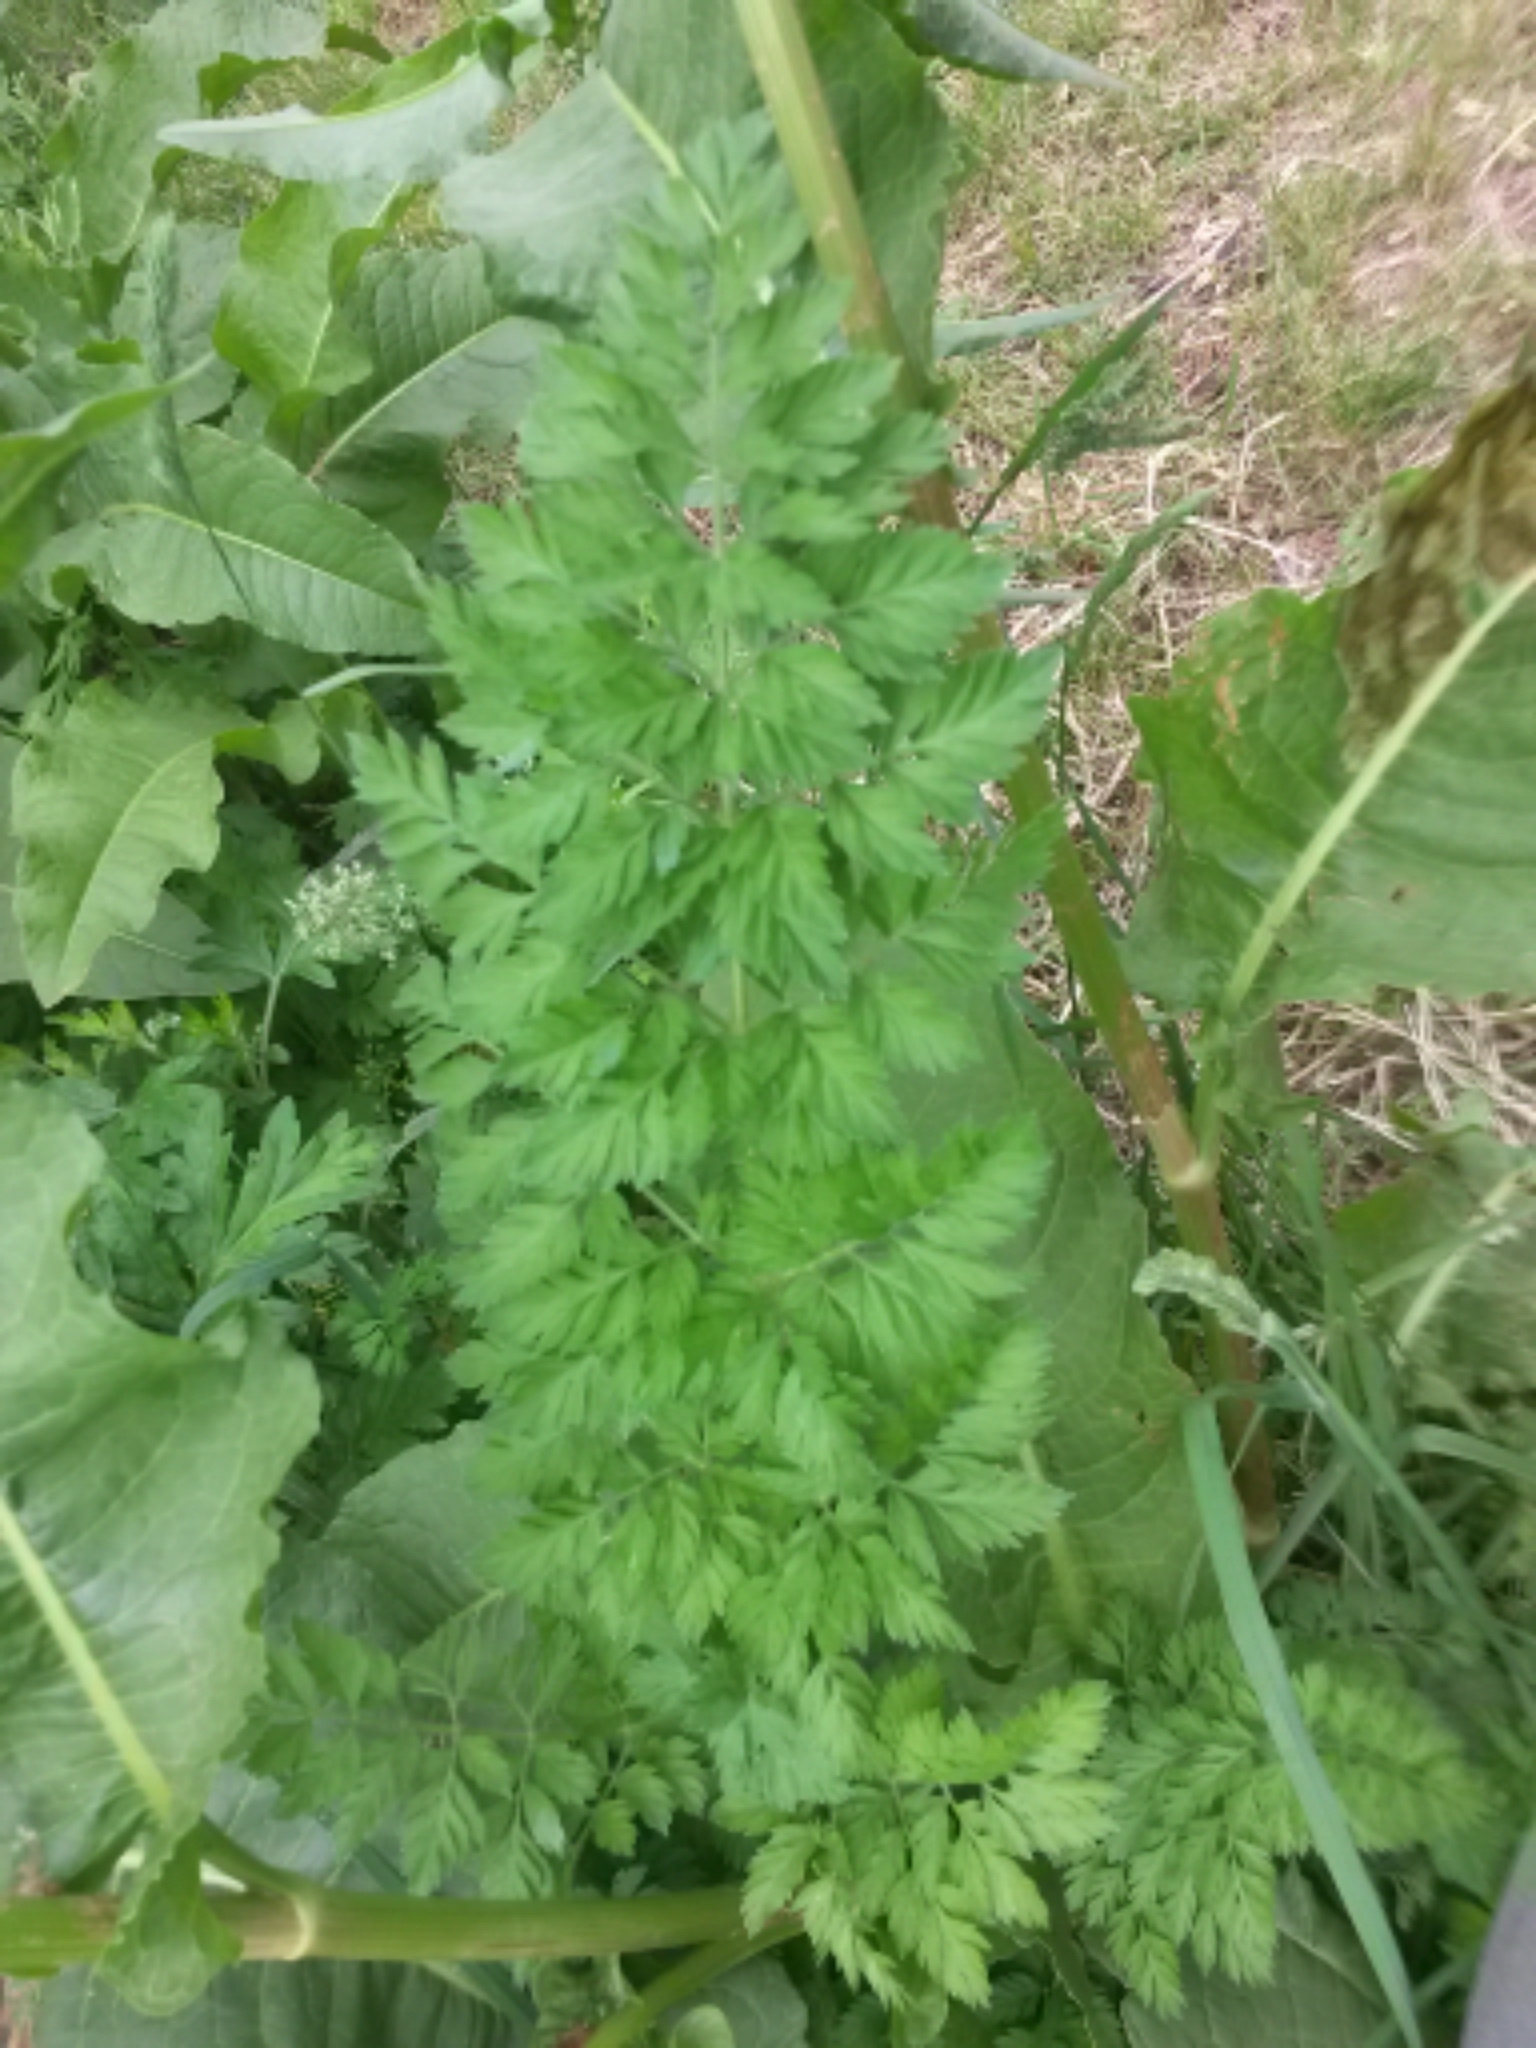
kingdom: Plantae
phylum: Tracheophyta
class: Magnoliopsida
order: Apiales
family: Apiaceae
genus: Daucus
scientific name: Daucus carota
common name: Wild carrot
